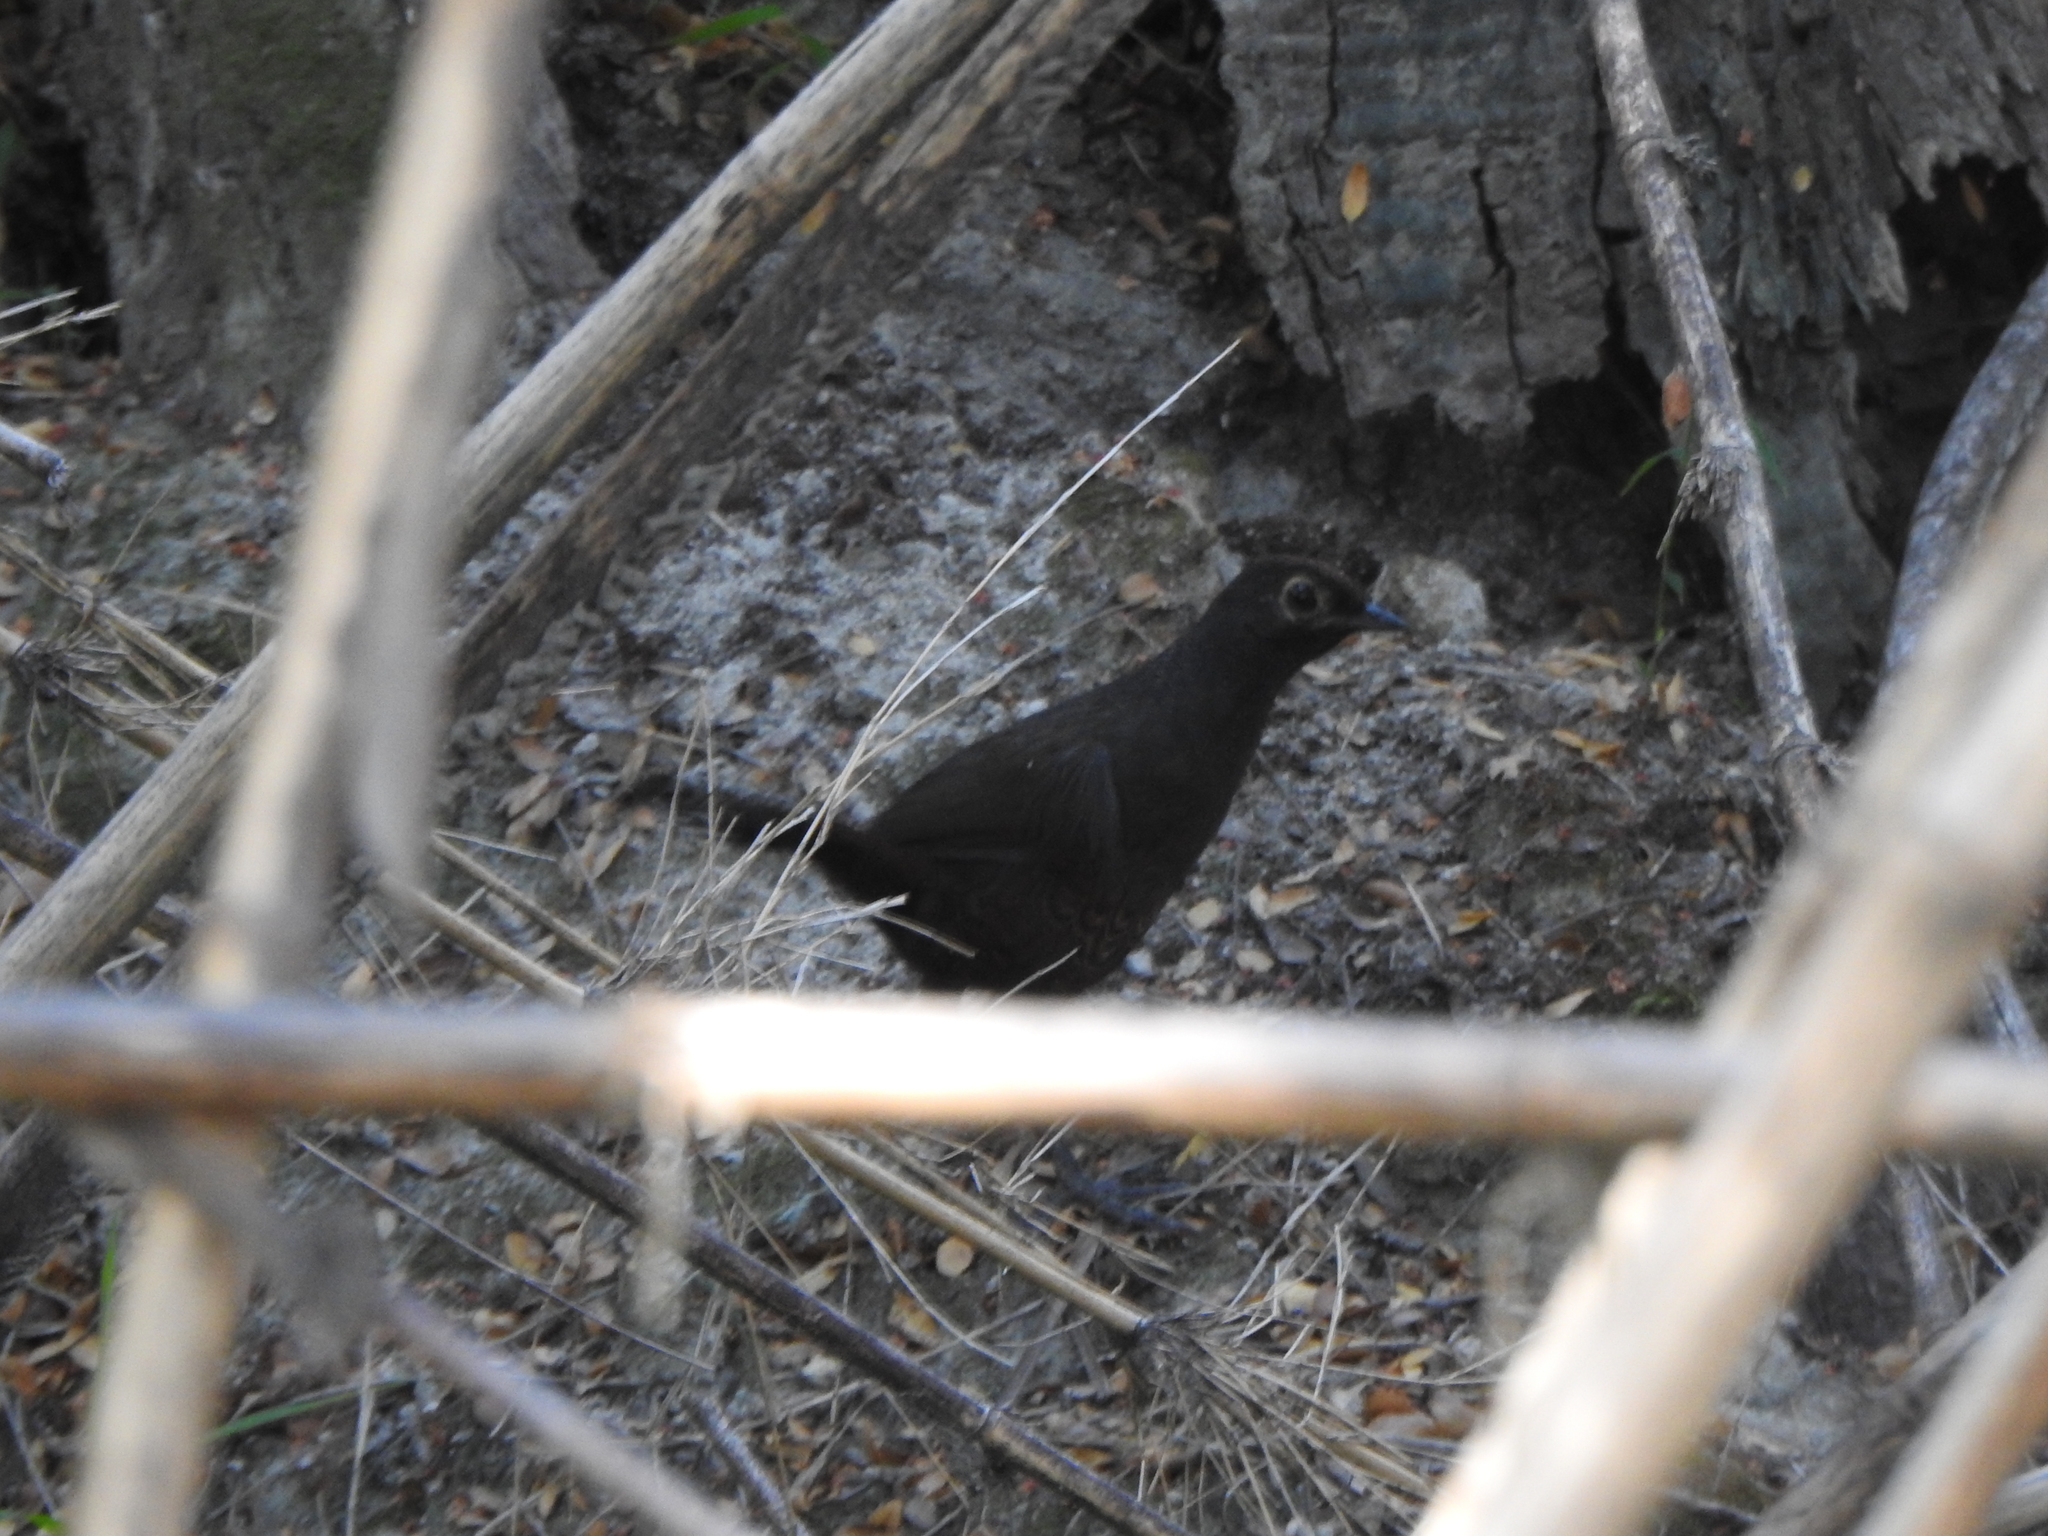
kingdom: Animalia
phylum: Chordata
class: Aves
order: Passeriformes
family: Rhinocryptidae
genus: Pteroptochos
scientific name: Pteroptochos tarnii
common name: Black-throated huet-huet
